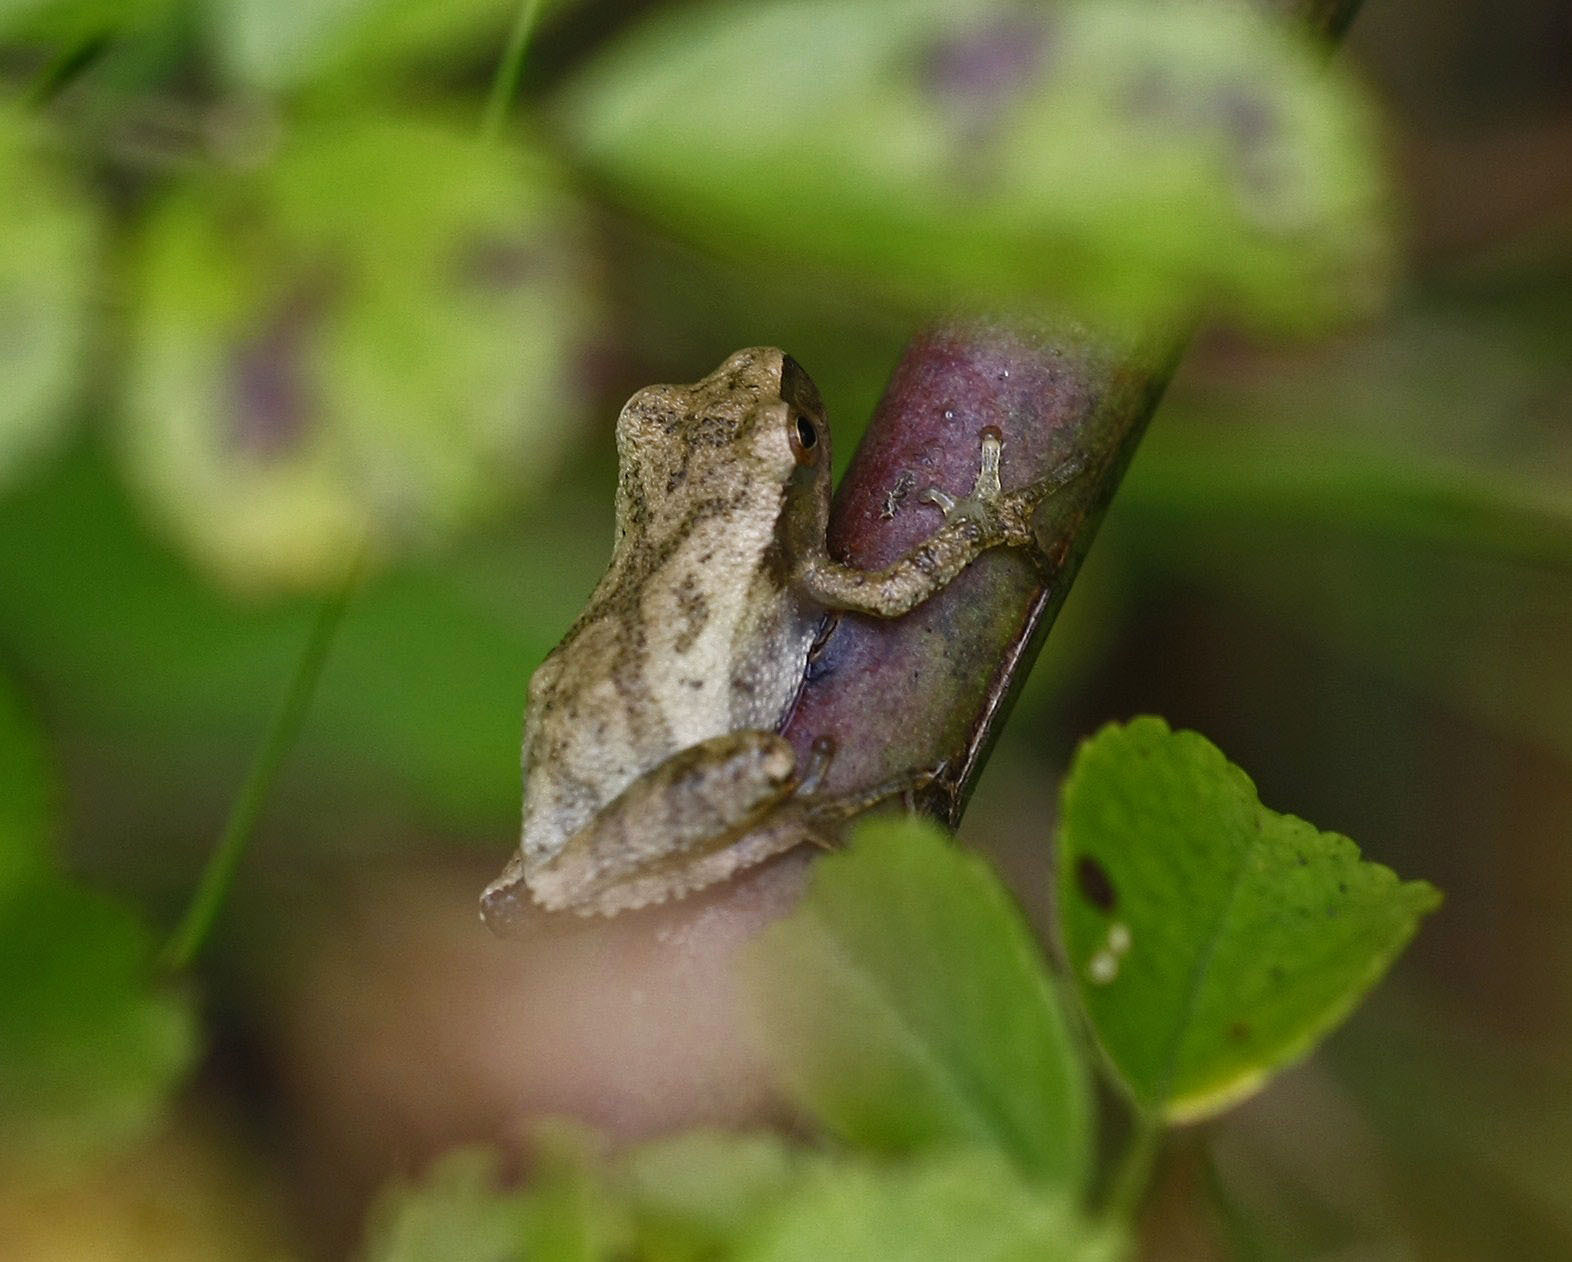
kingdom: Animalia
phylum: Chordata
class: Amphibia
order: Anura
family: Hylidae
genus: Pseudacris
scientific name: Pseudacris crucifer
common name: Spring peeper
